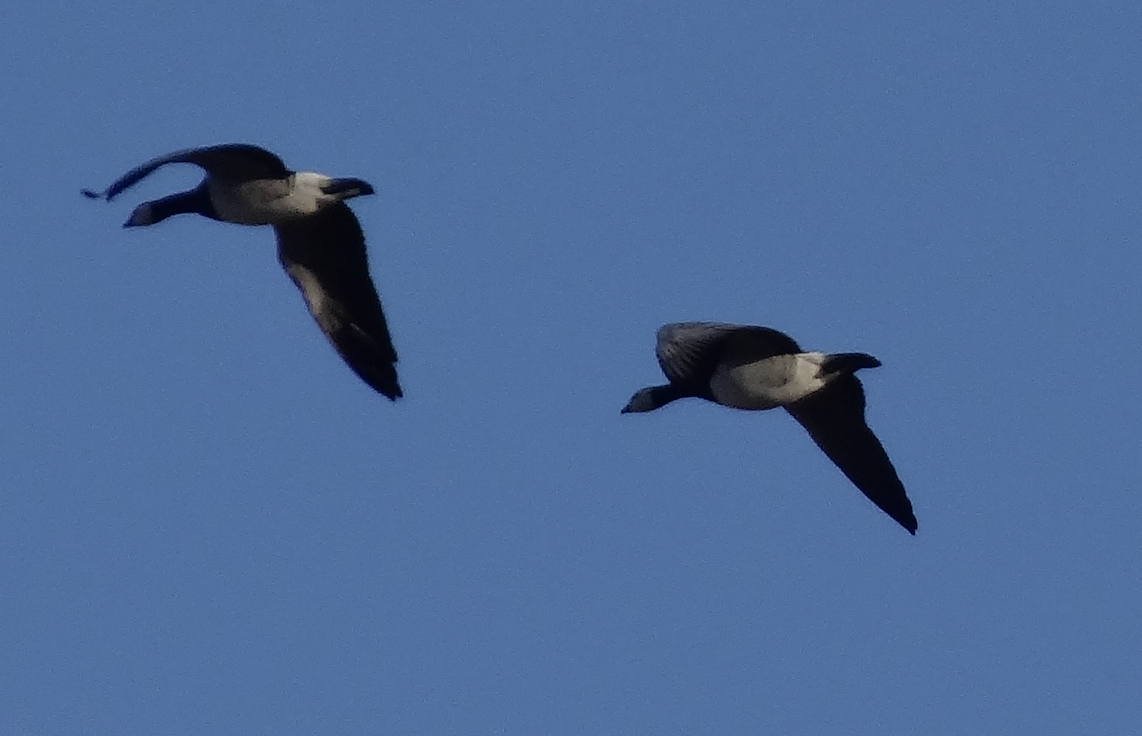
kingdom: Animalia
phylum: Chordata
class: Aves
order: Anseriformes
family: Anatidae
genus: Branta
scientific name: Branta leucopsis
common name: Barnacle goose
